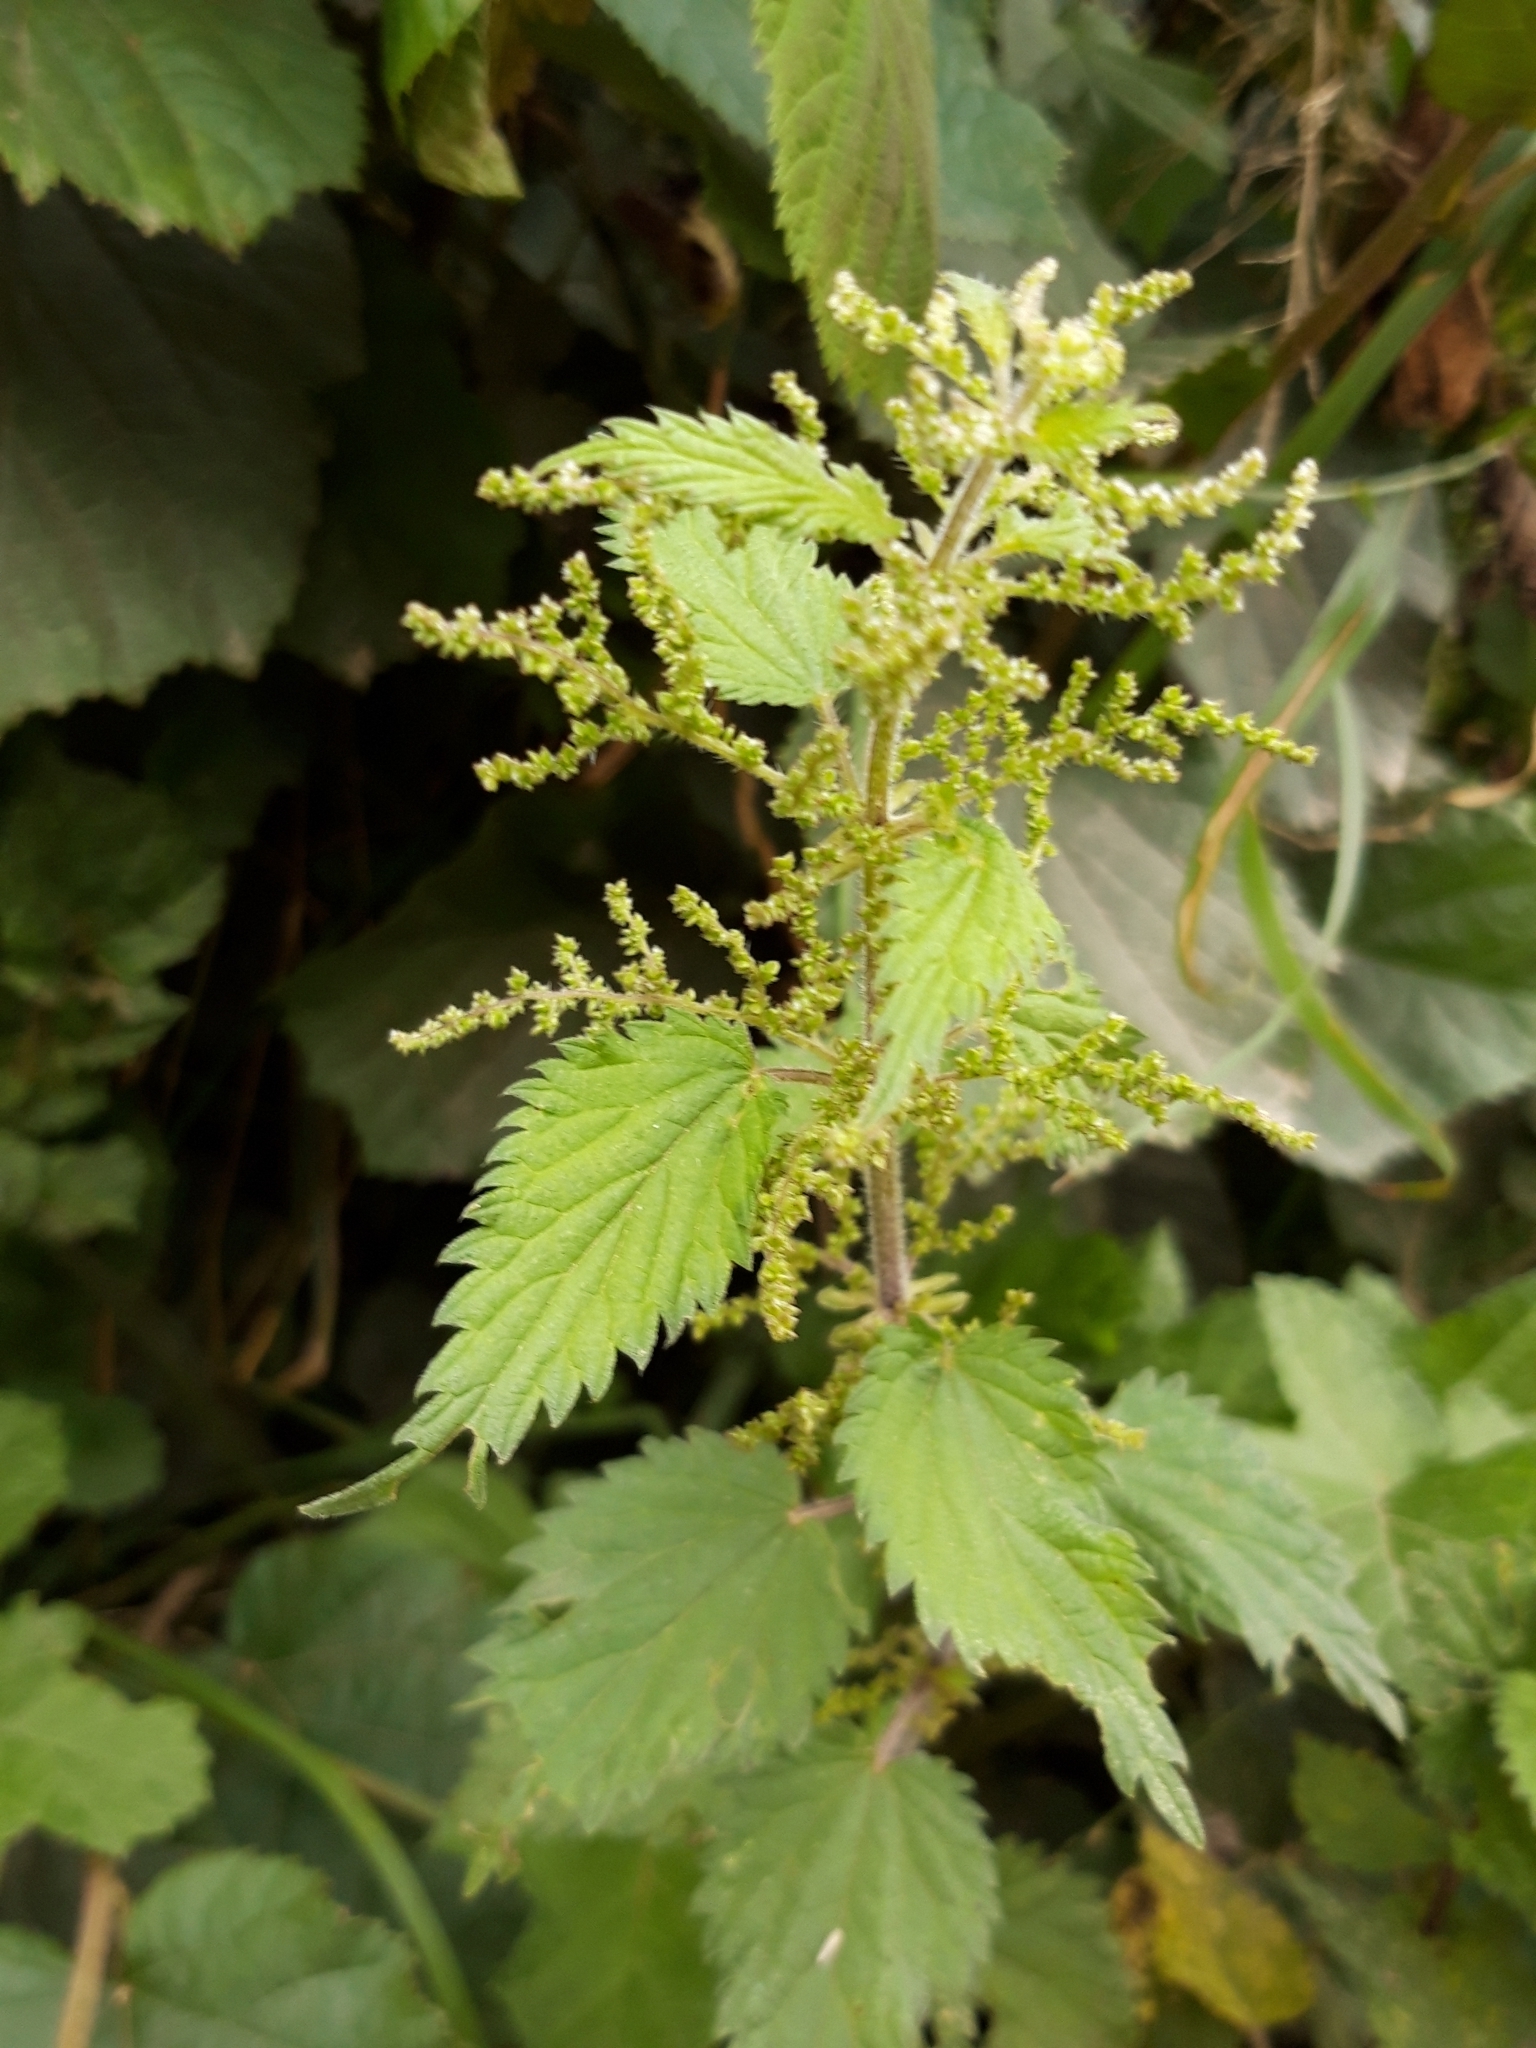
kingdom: Plantae
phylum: Tracheophyta
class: Magnoliopsida
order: Rosales
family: Urticaceae
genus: Urtica
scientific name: Urtica dioica
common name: Common nettle
